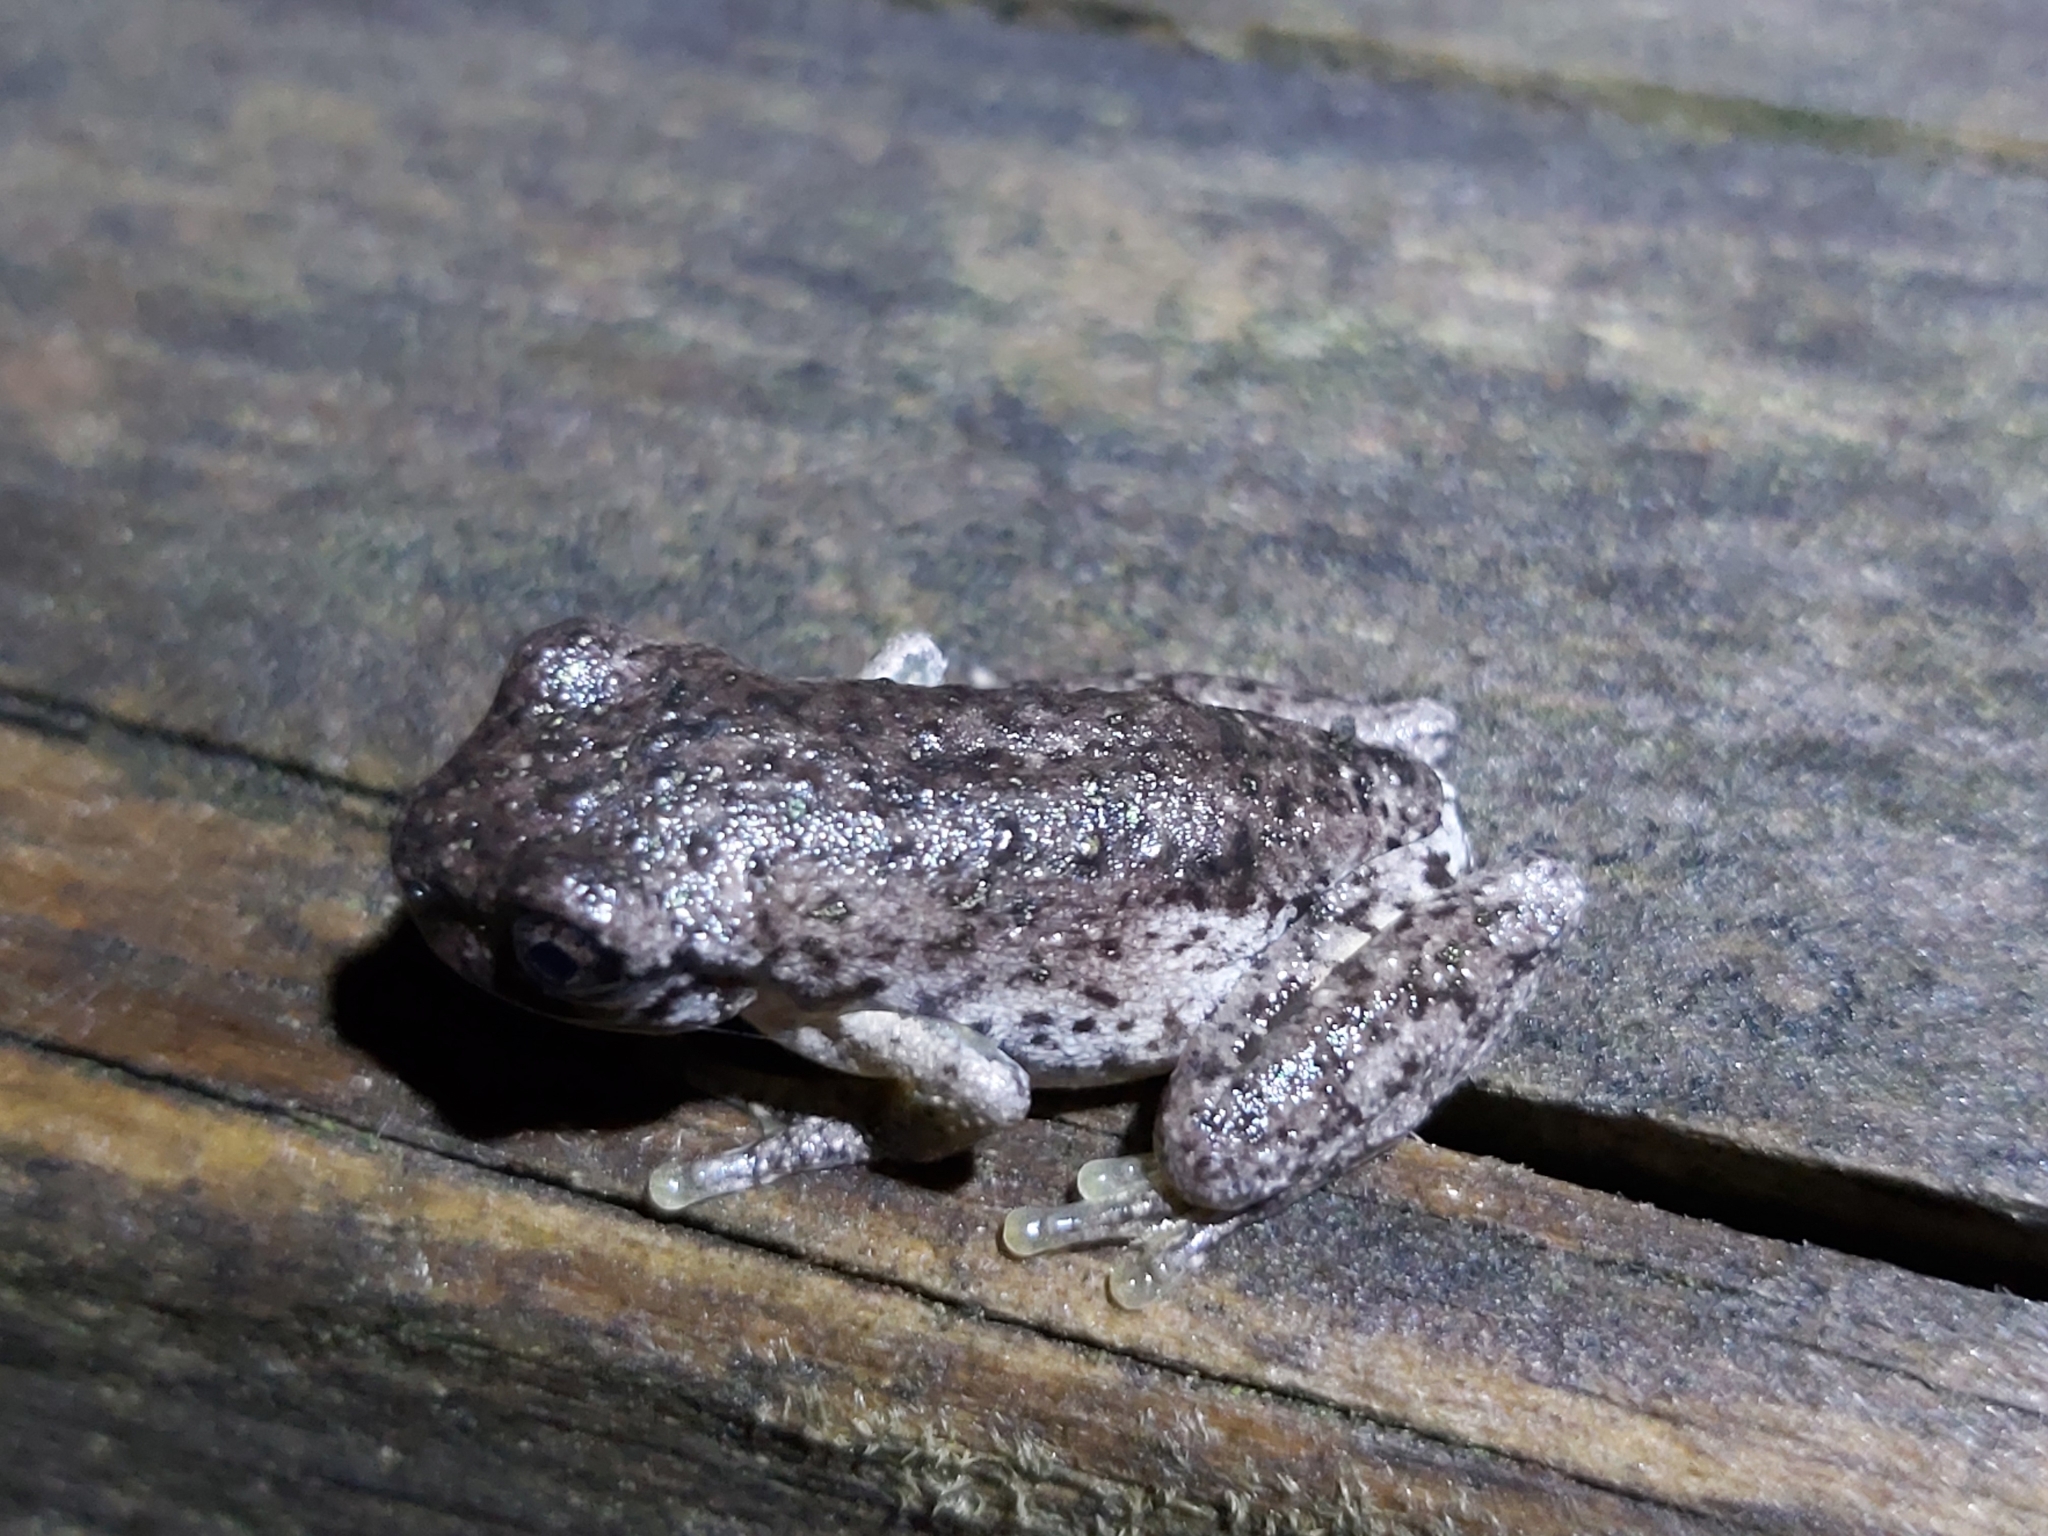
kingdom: Animalia
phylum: Chordata
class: Amphibia
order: Anura
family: Pelodryadidae
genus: Litoria
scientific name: Litoria peronii
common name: Emerald spotted treefrog
